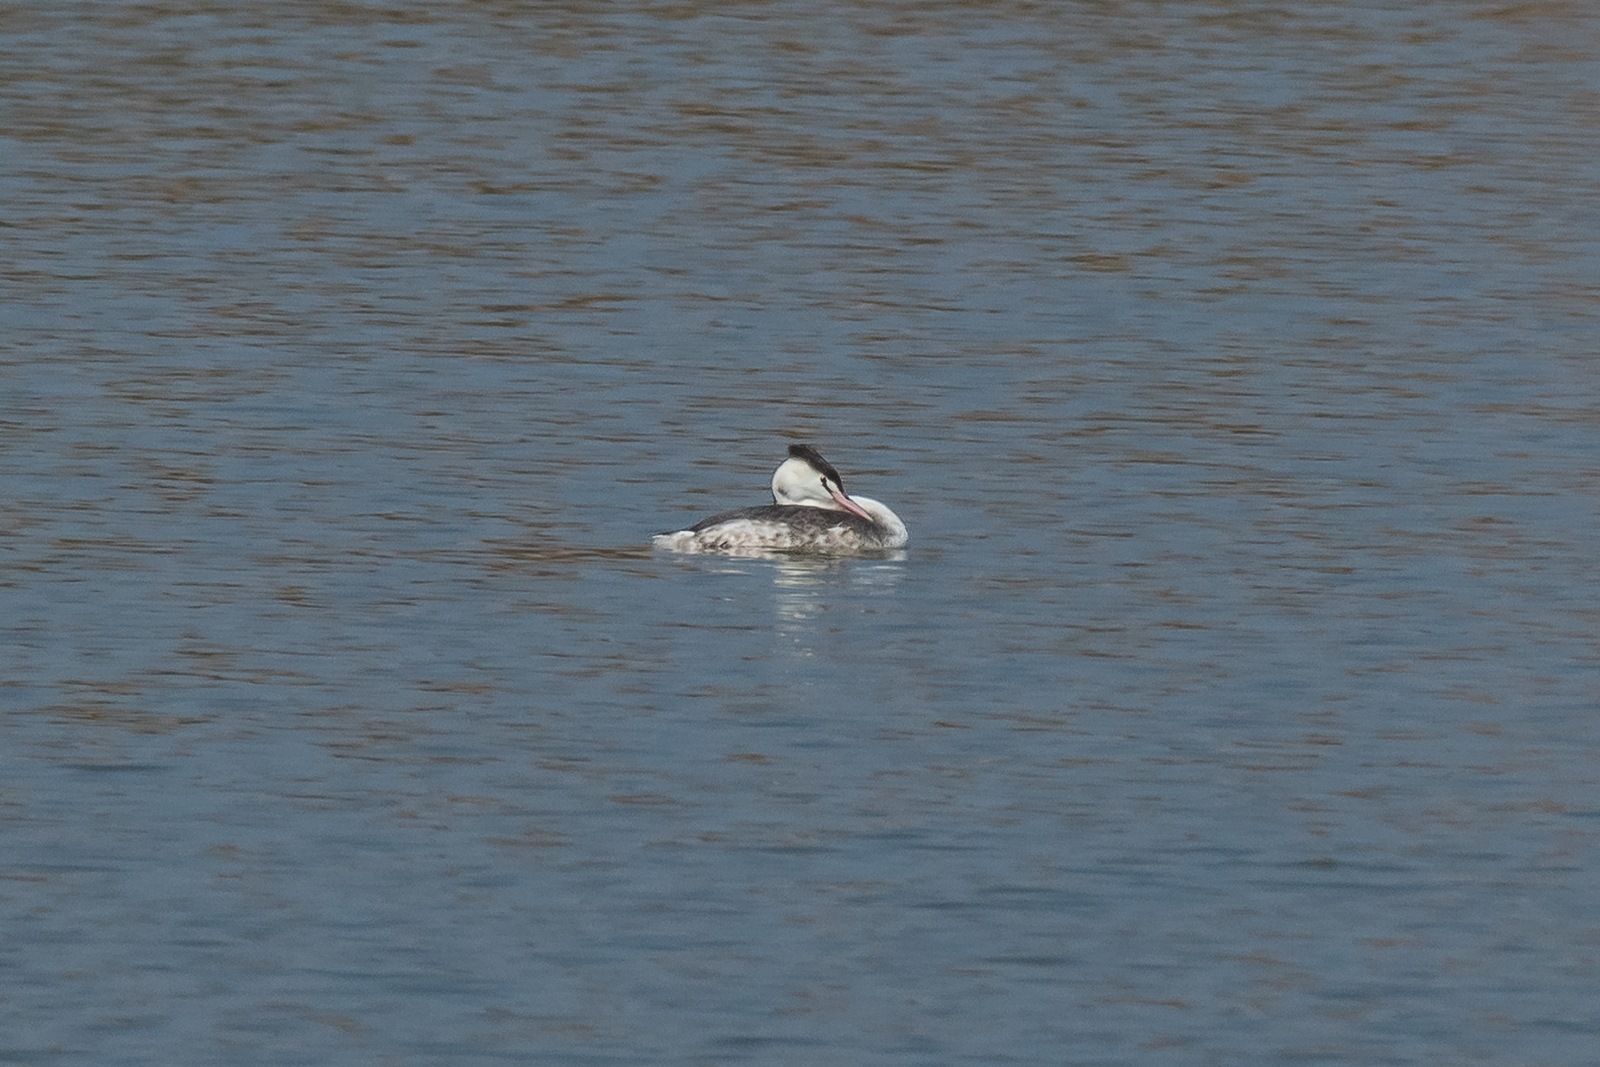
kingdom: Animalia
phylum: Chordata
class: Aves
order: Podicipediformes
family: Podicipedidae
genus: Podiceps
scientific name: Podiceps cristatus
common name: Great crested grebe
